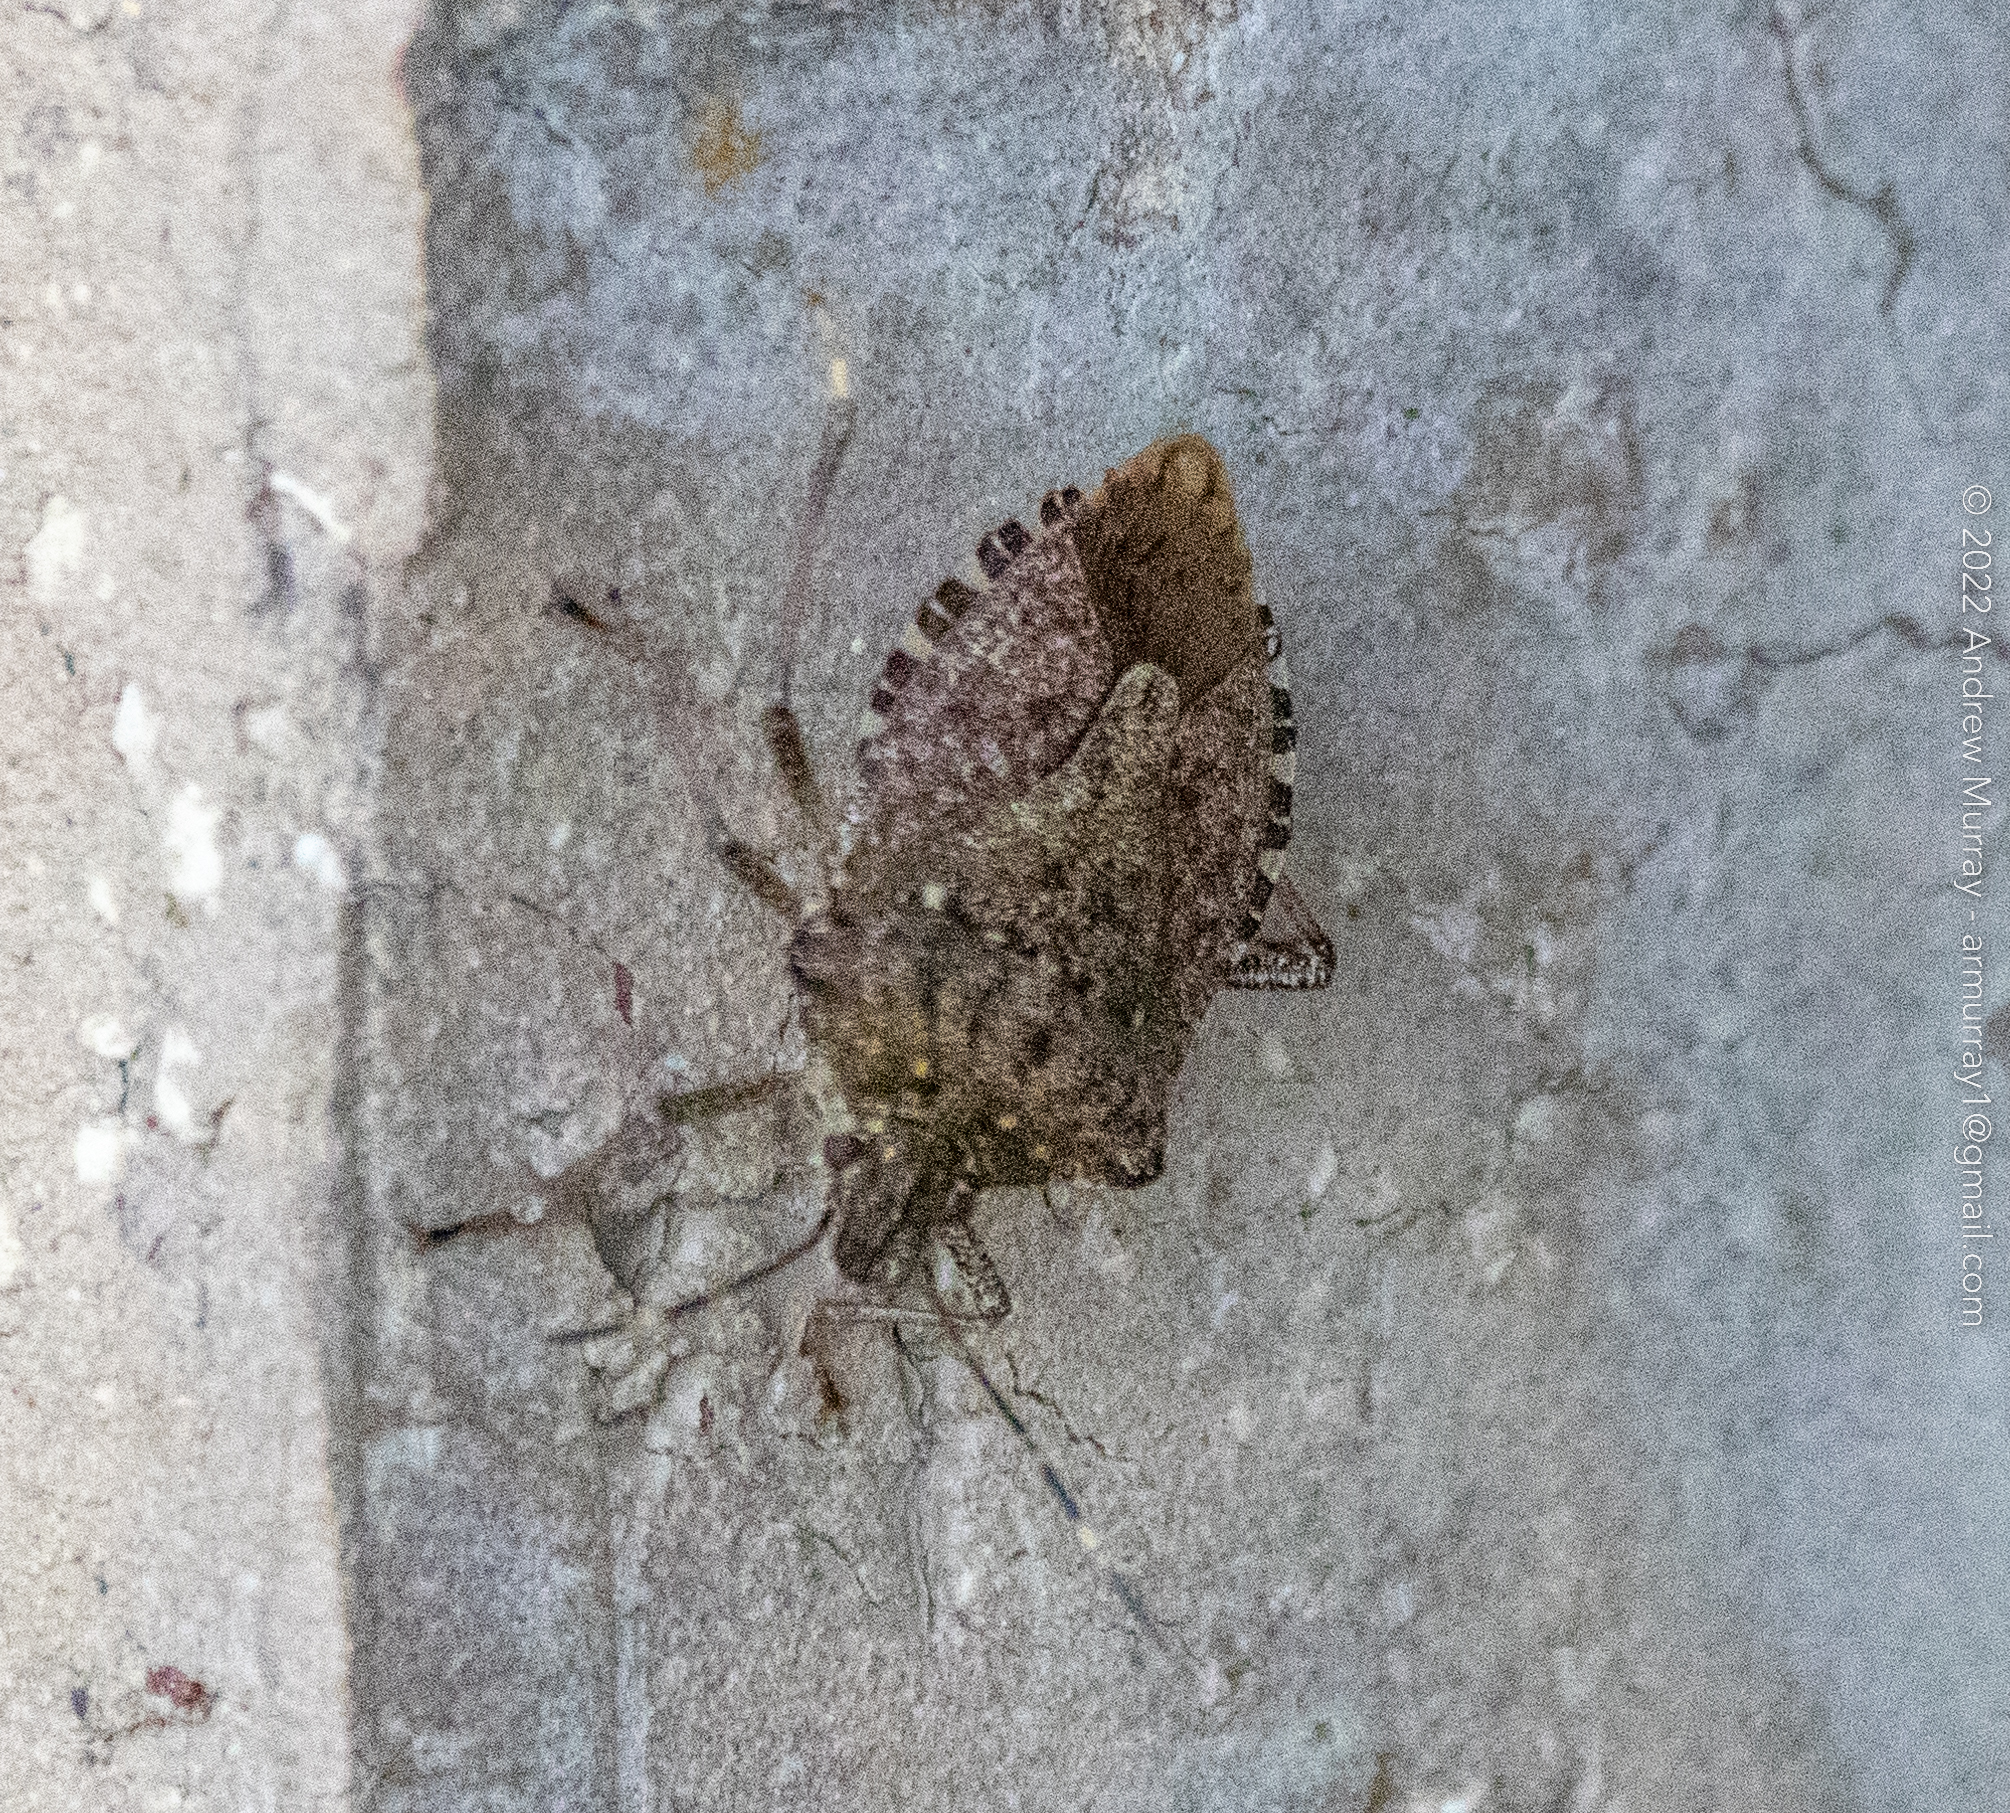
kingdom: Animalia
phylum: Arthropoda
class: Insecta
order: Hemiptera
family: Pentatomidae
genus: Halyomorpha
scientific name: Halyomorpha halys
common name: Brown marmorated stink bug
